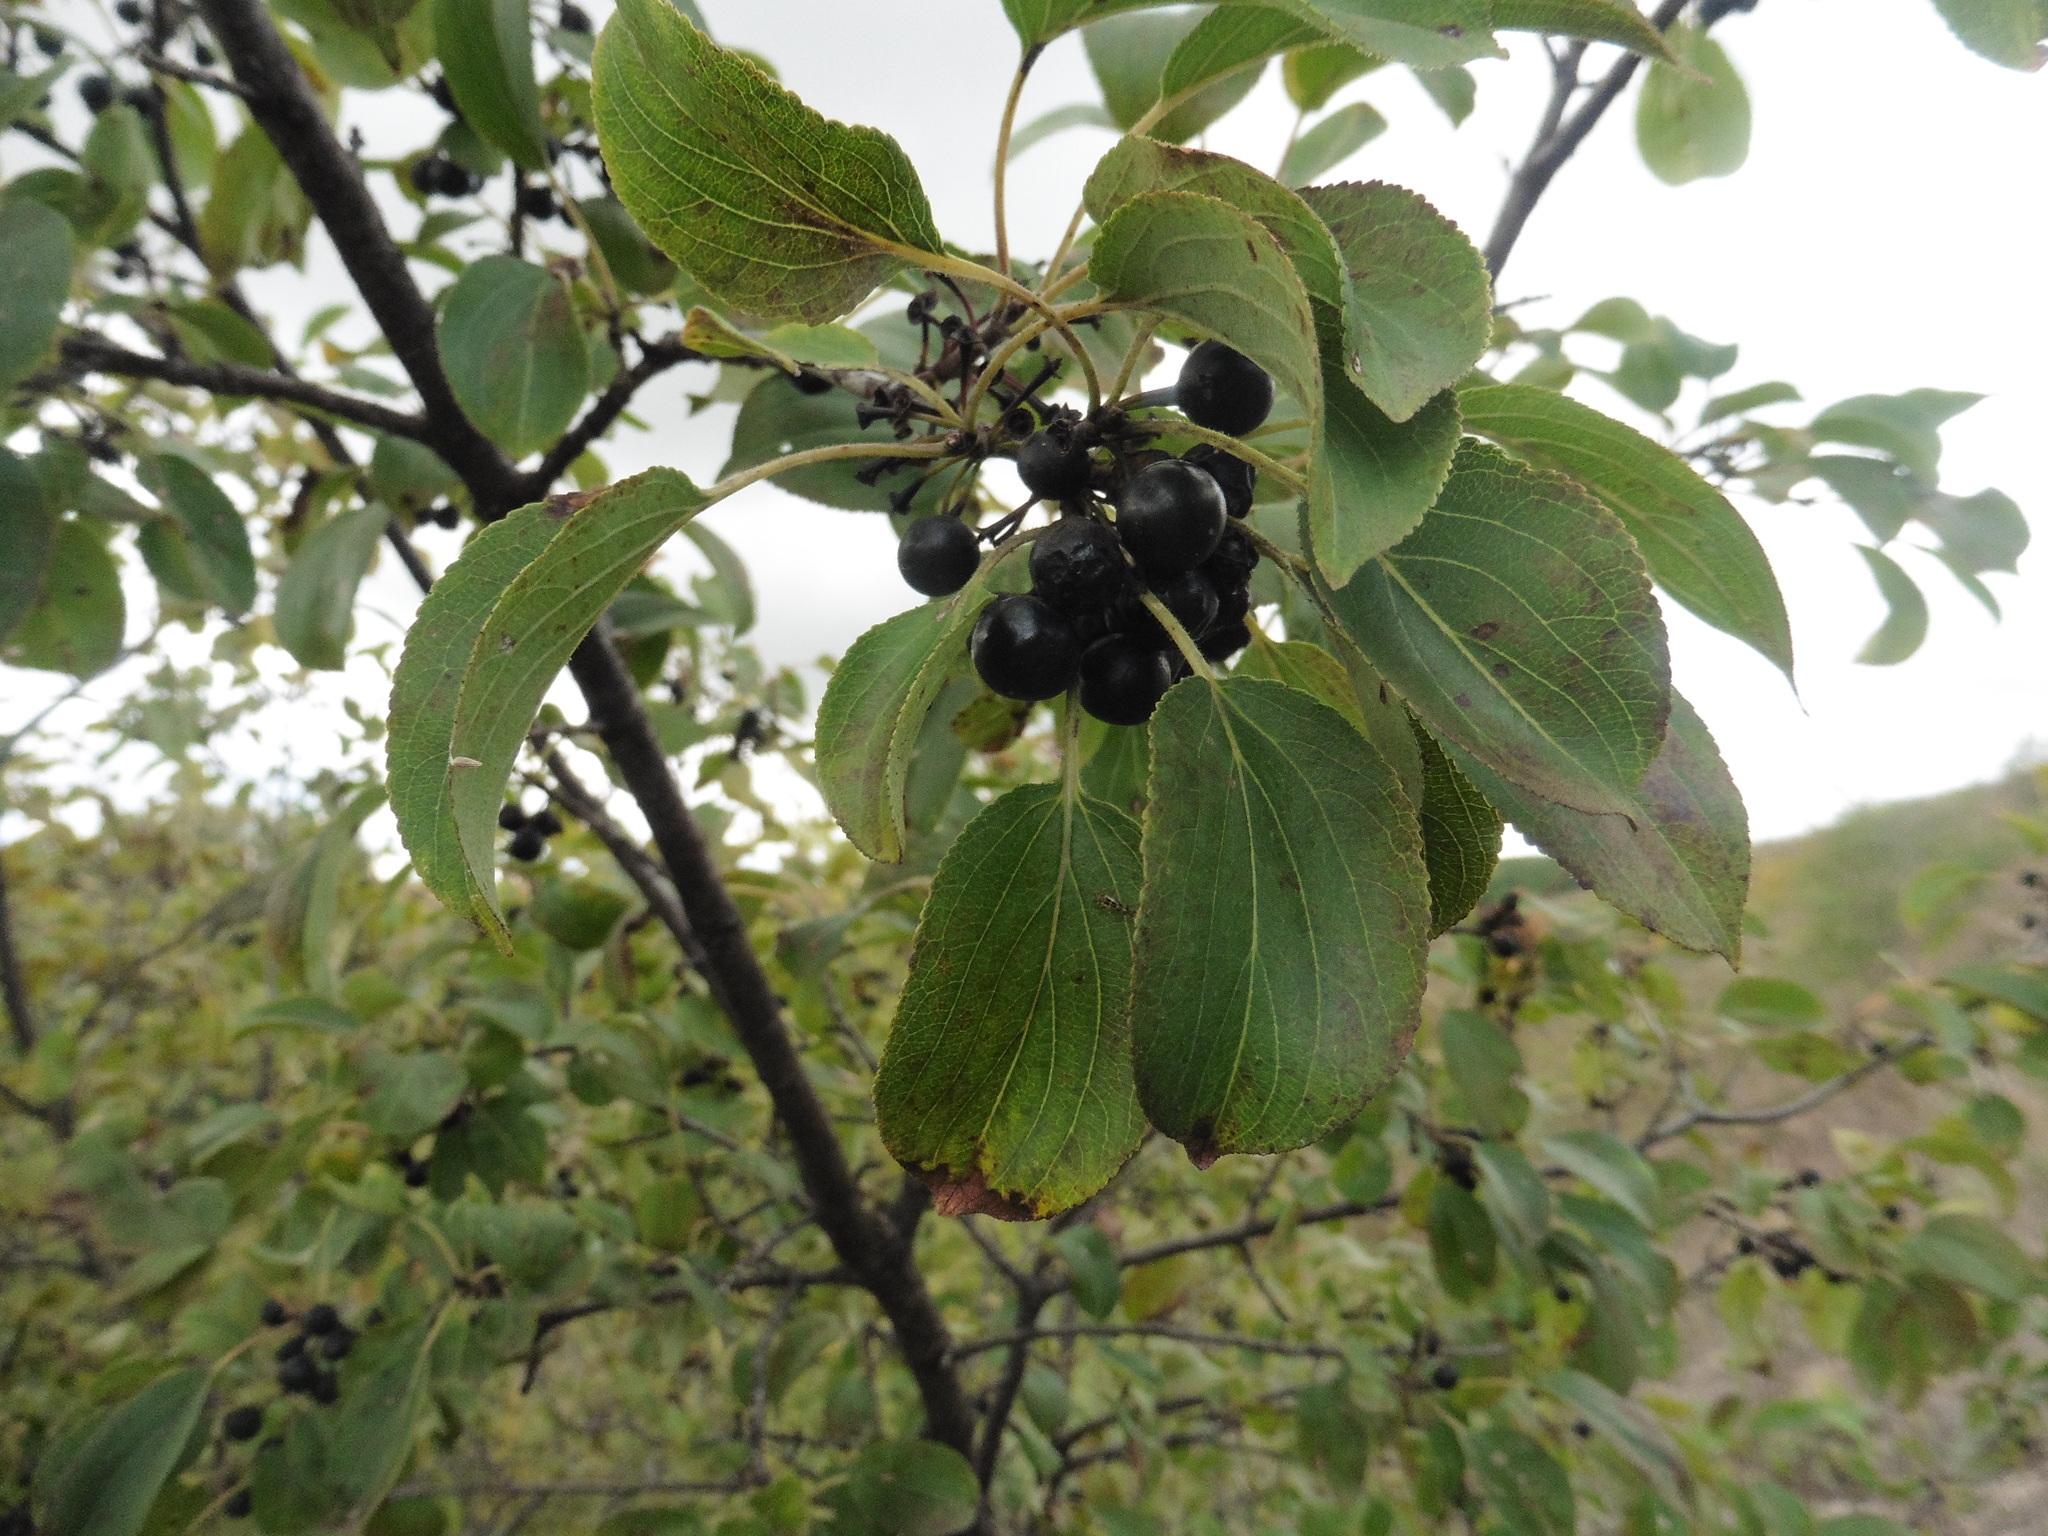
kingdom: Plantae
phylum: Tracheophyta
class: Magnoliopsida
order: Rosales
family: Rhamnaceae
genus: Rhamnus
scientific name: Rhamnus cathartica
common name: Common buckthorn
